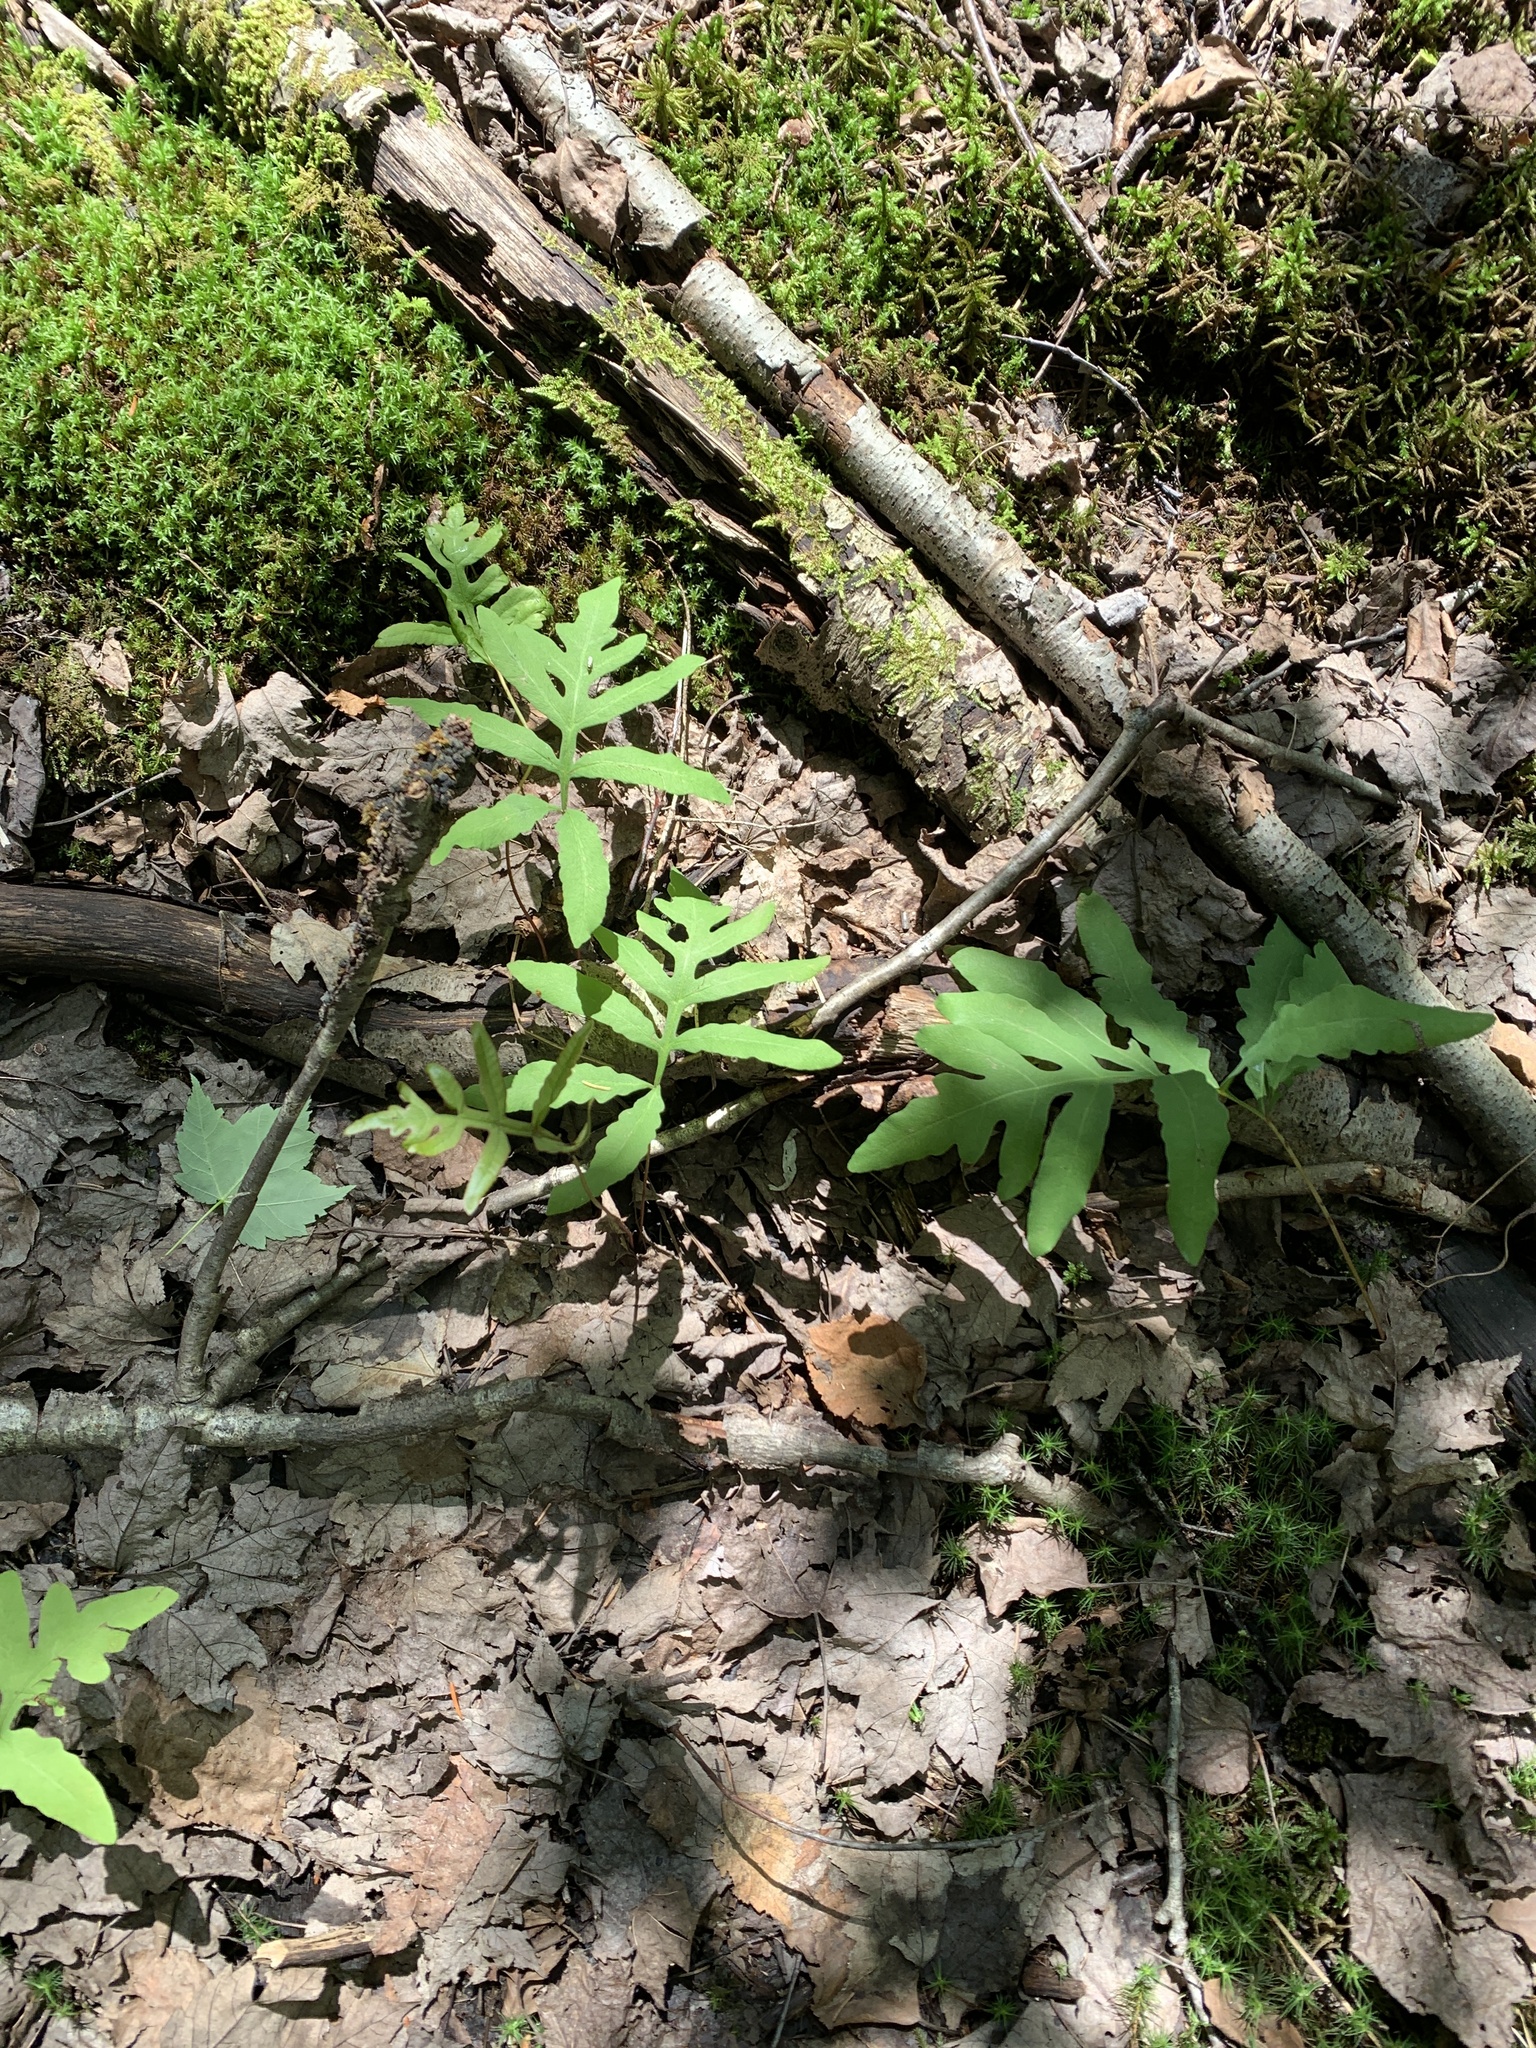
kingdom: Plantae
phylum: Tracheophyta
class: Polypodiopsida
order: Polypodiales
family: Onocleaceae
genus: Onoclea
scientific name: Onoclea sensibilis
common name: Sensitive fern
